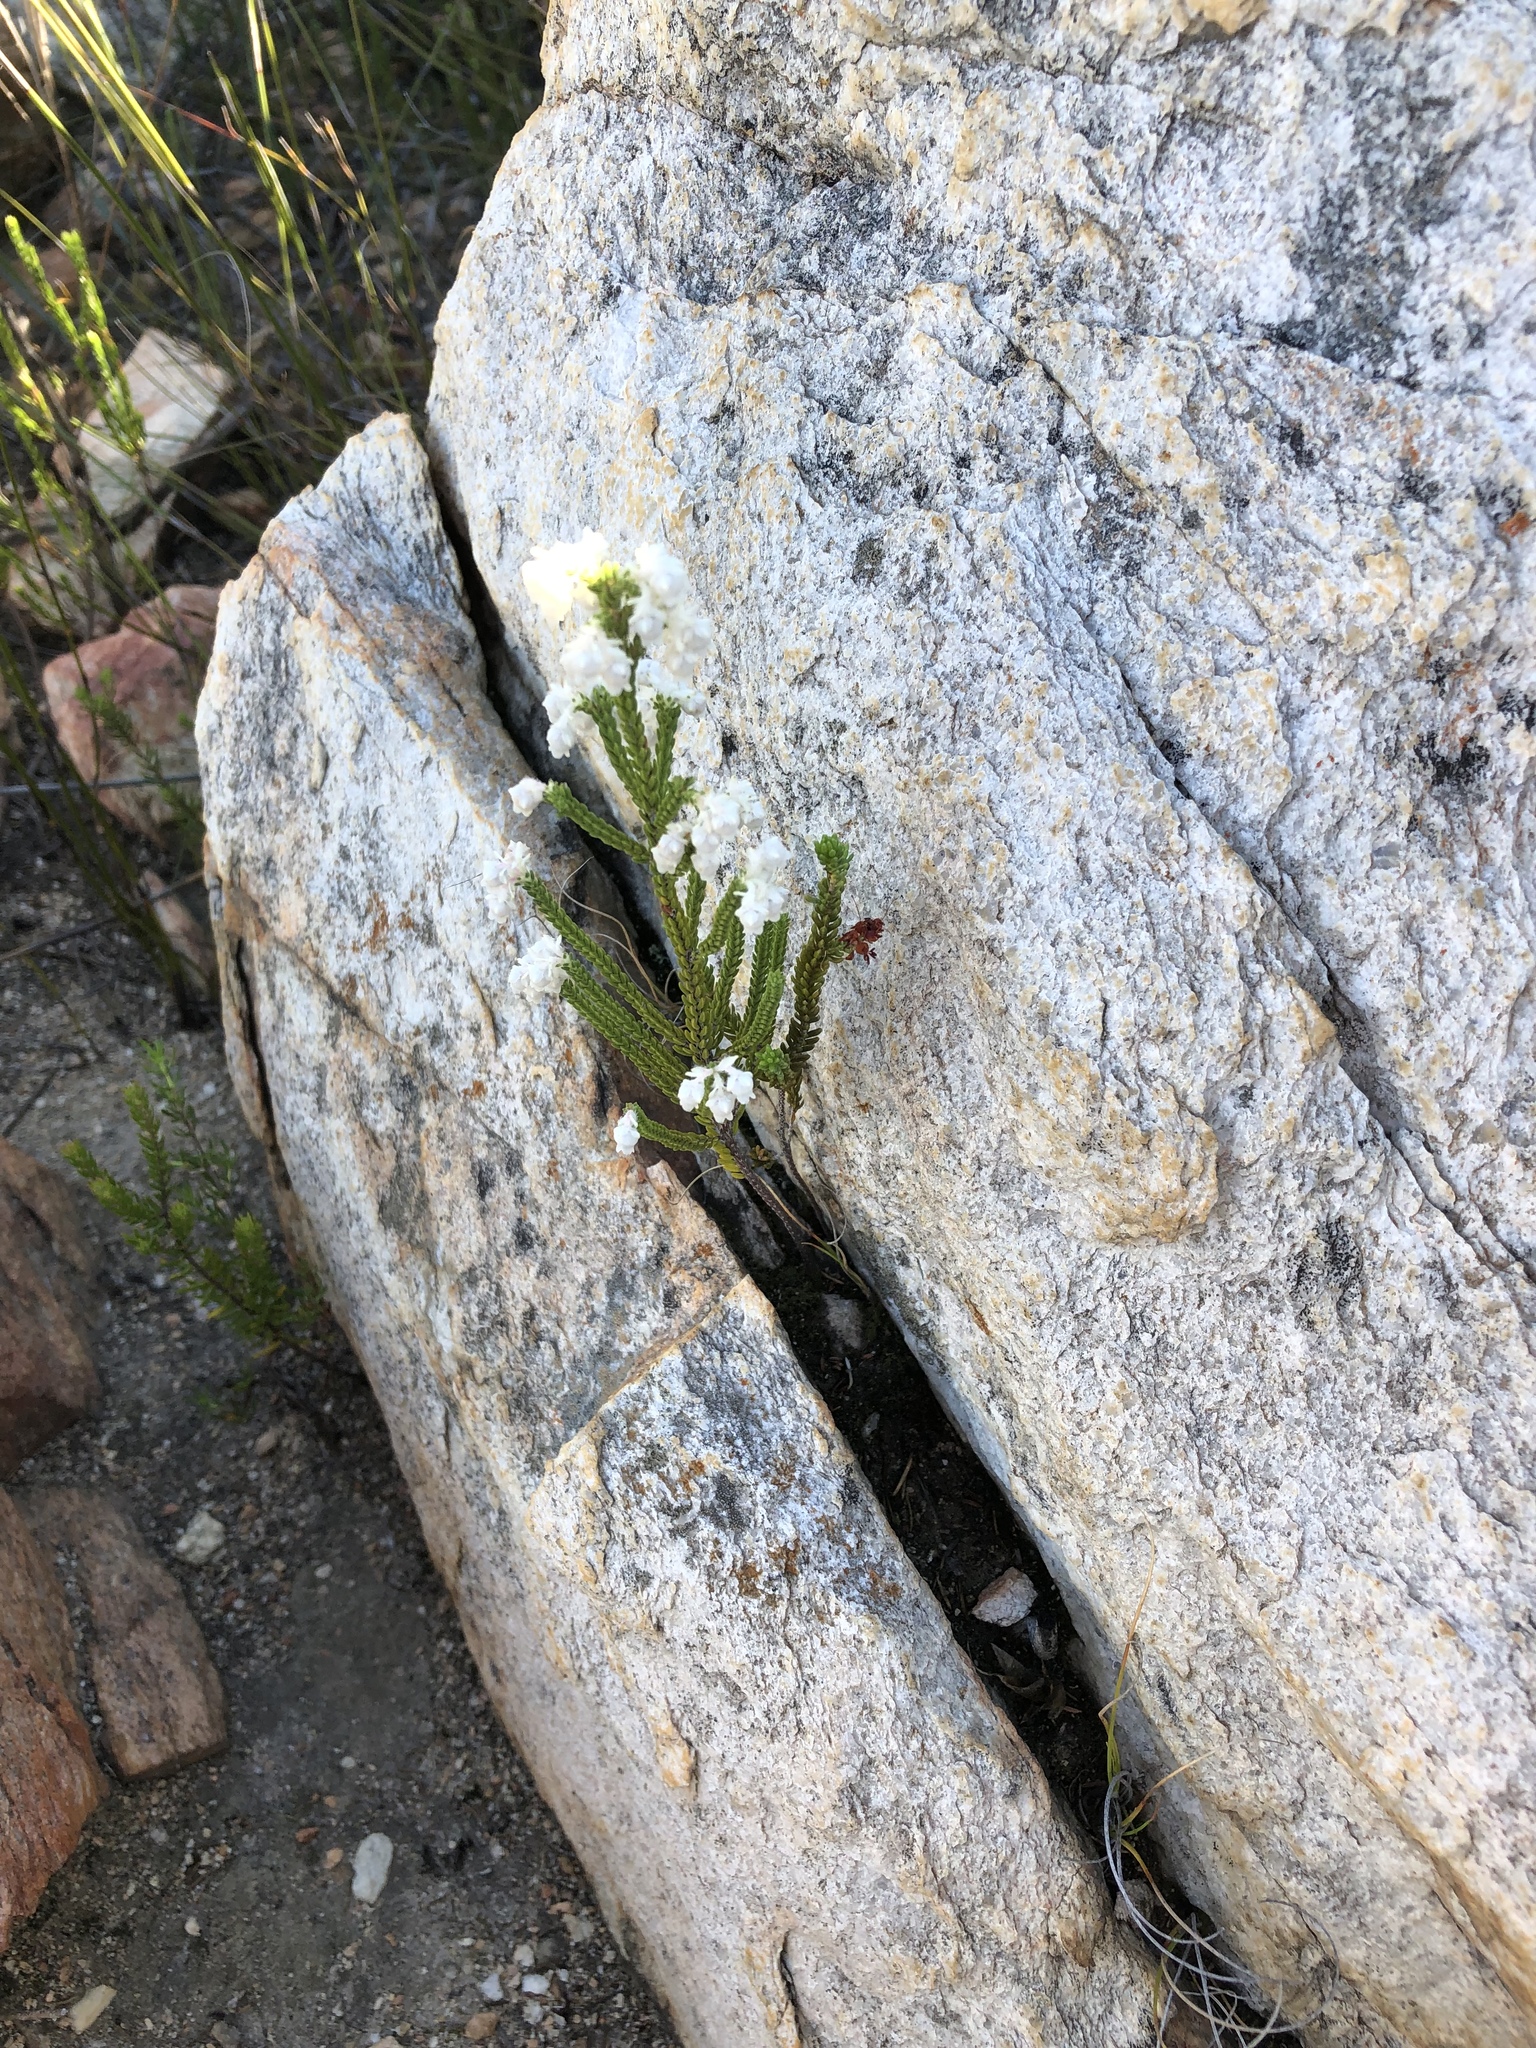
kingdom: Plantae
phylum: Tracheophyta
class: Magnoliopsida
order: Ericales
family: Ericaceae
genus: Erica
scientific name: Erica fimbriata
